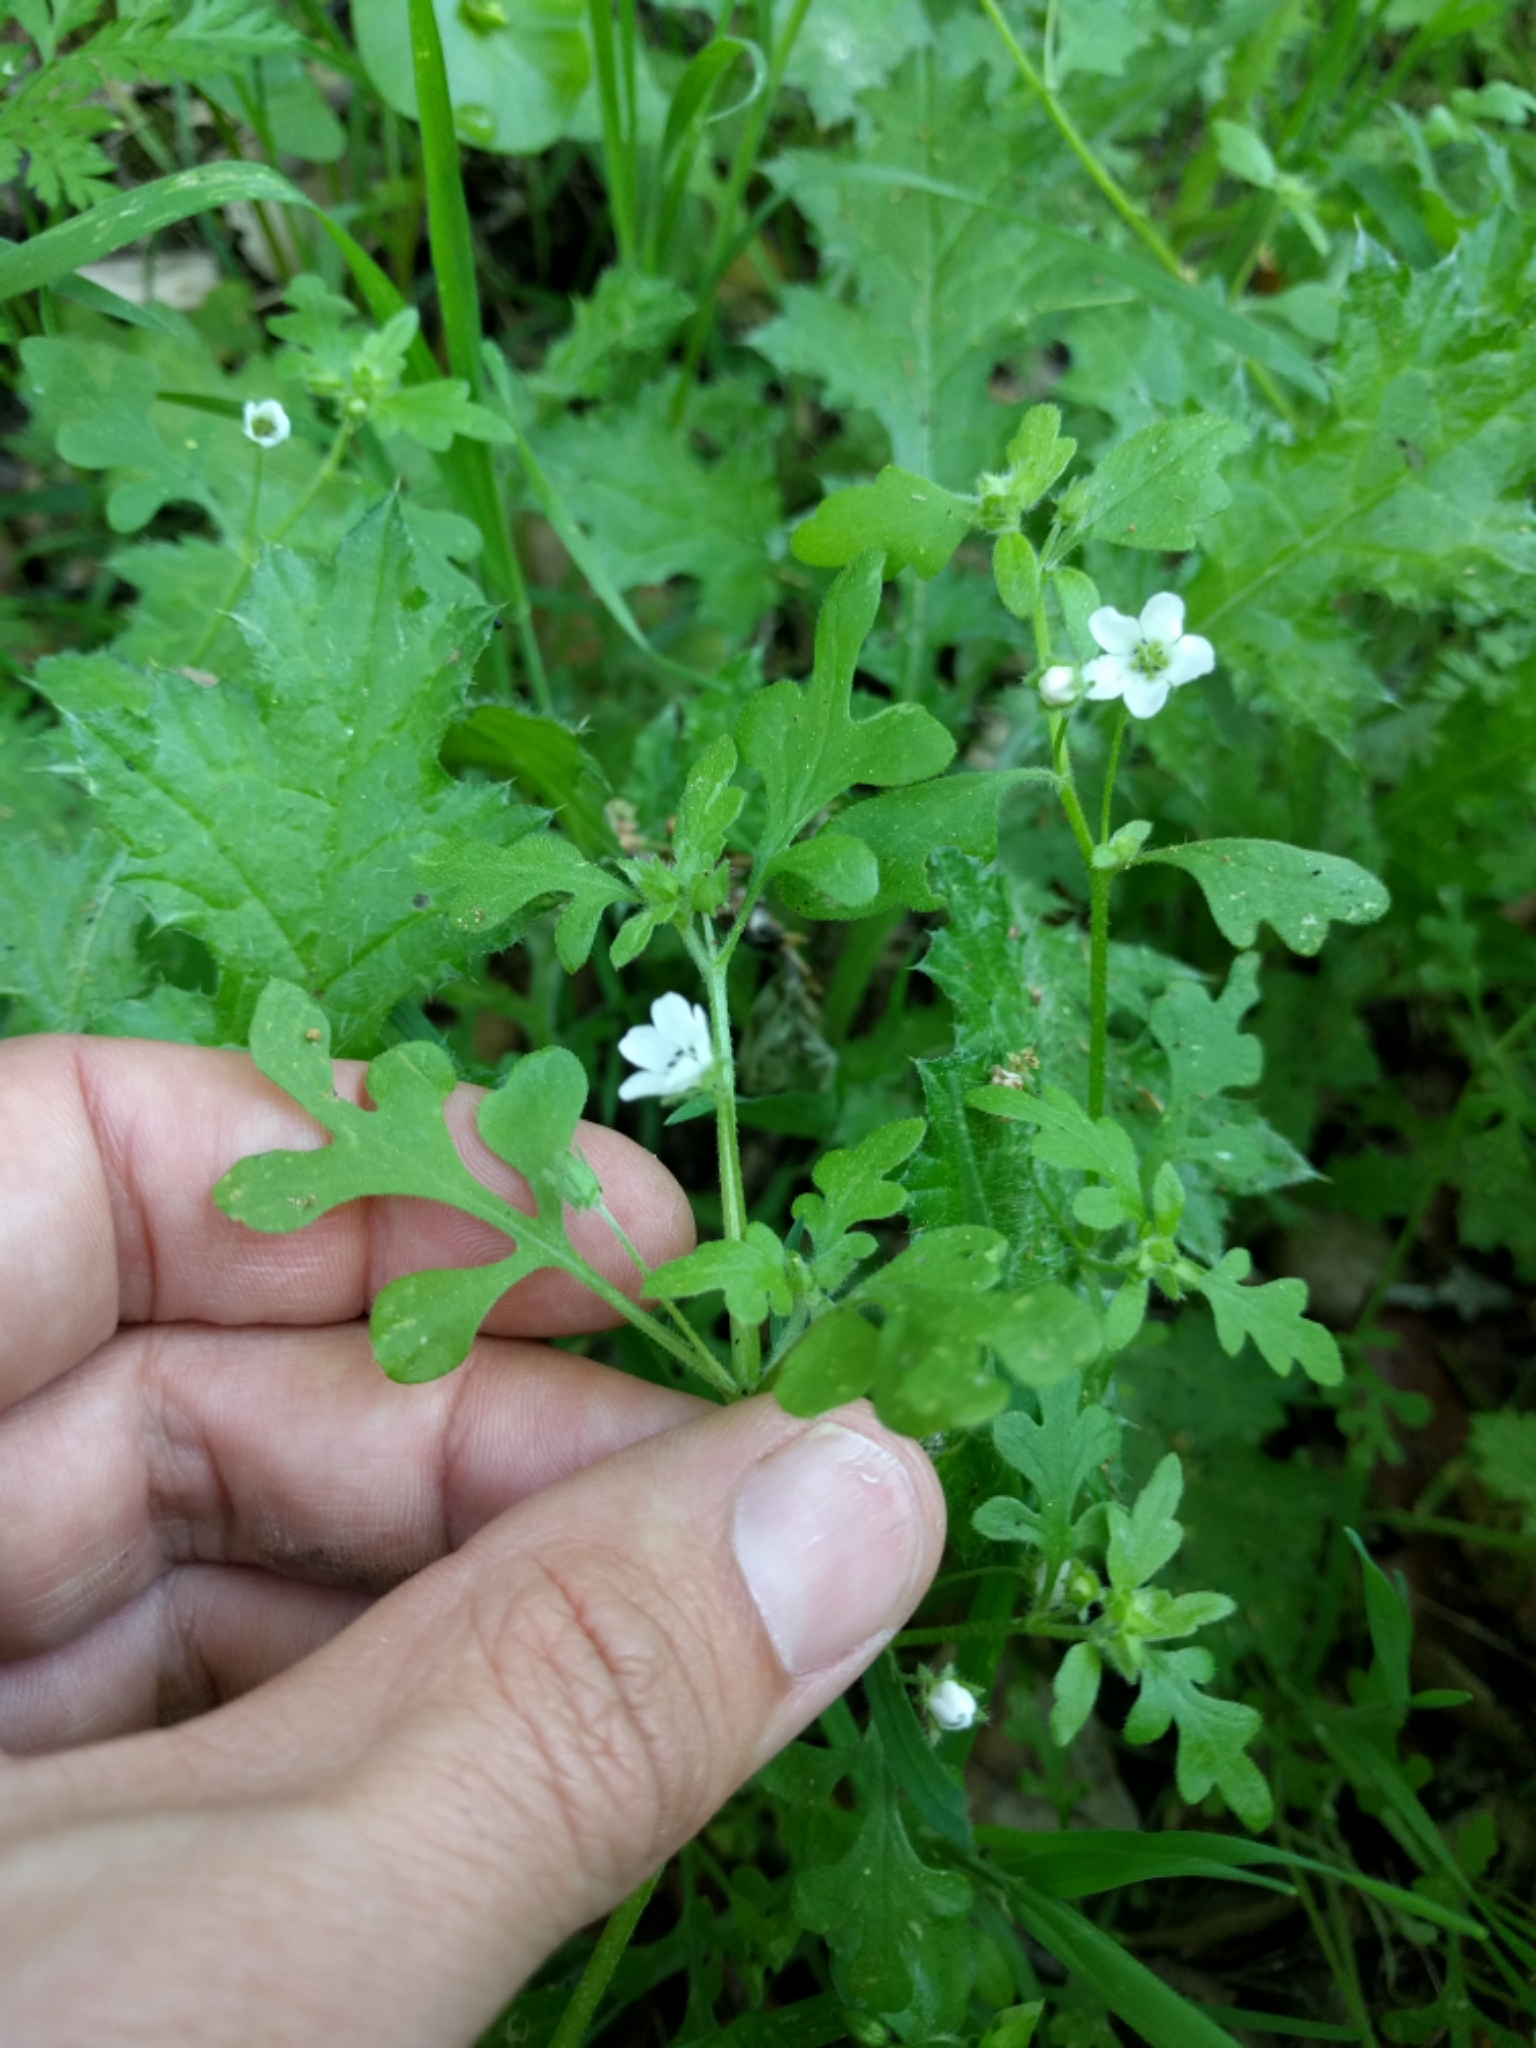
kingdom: Plantae
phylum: Tracheophyta
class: Magnoliopsida
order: Boraginales
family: Hydrophyllaceae
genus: Nemophila
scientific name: Nemophila heterophylla
